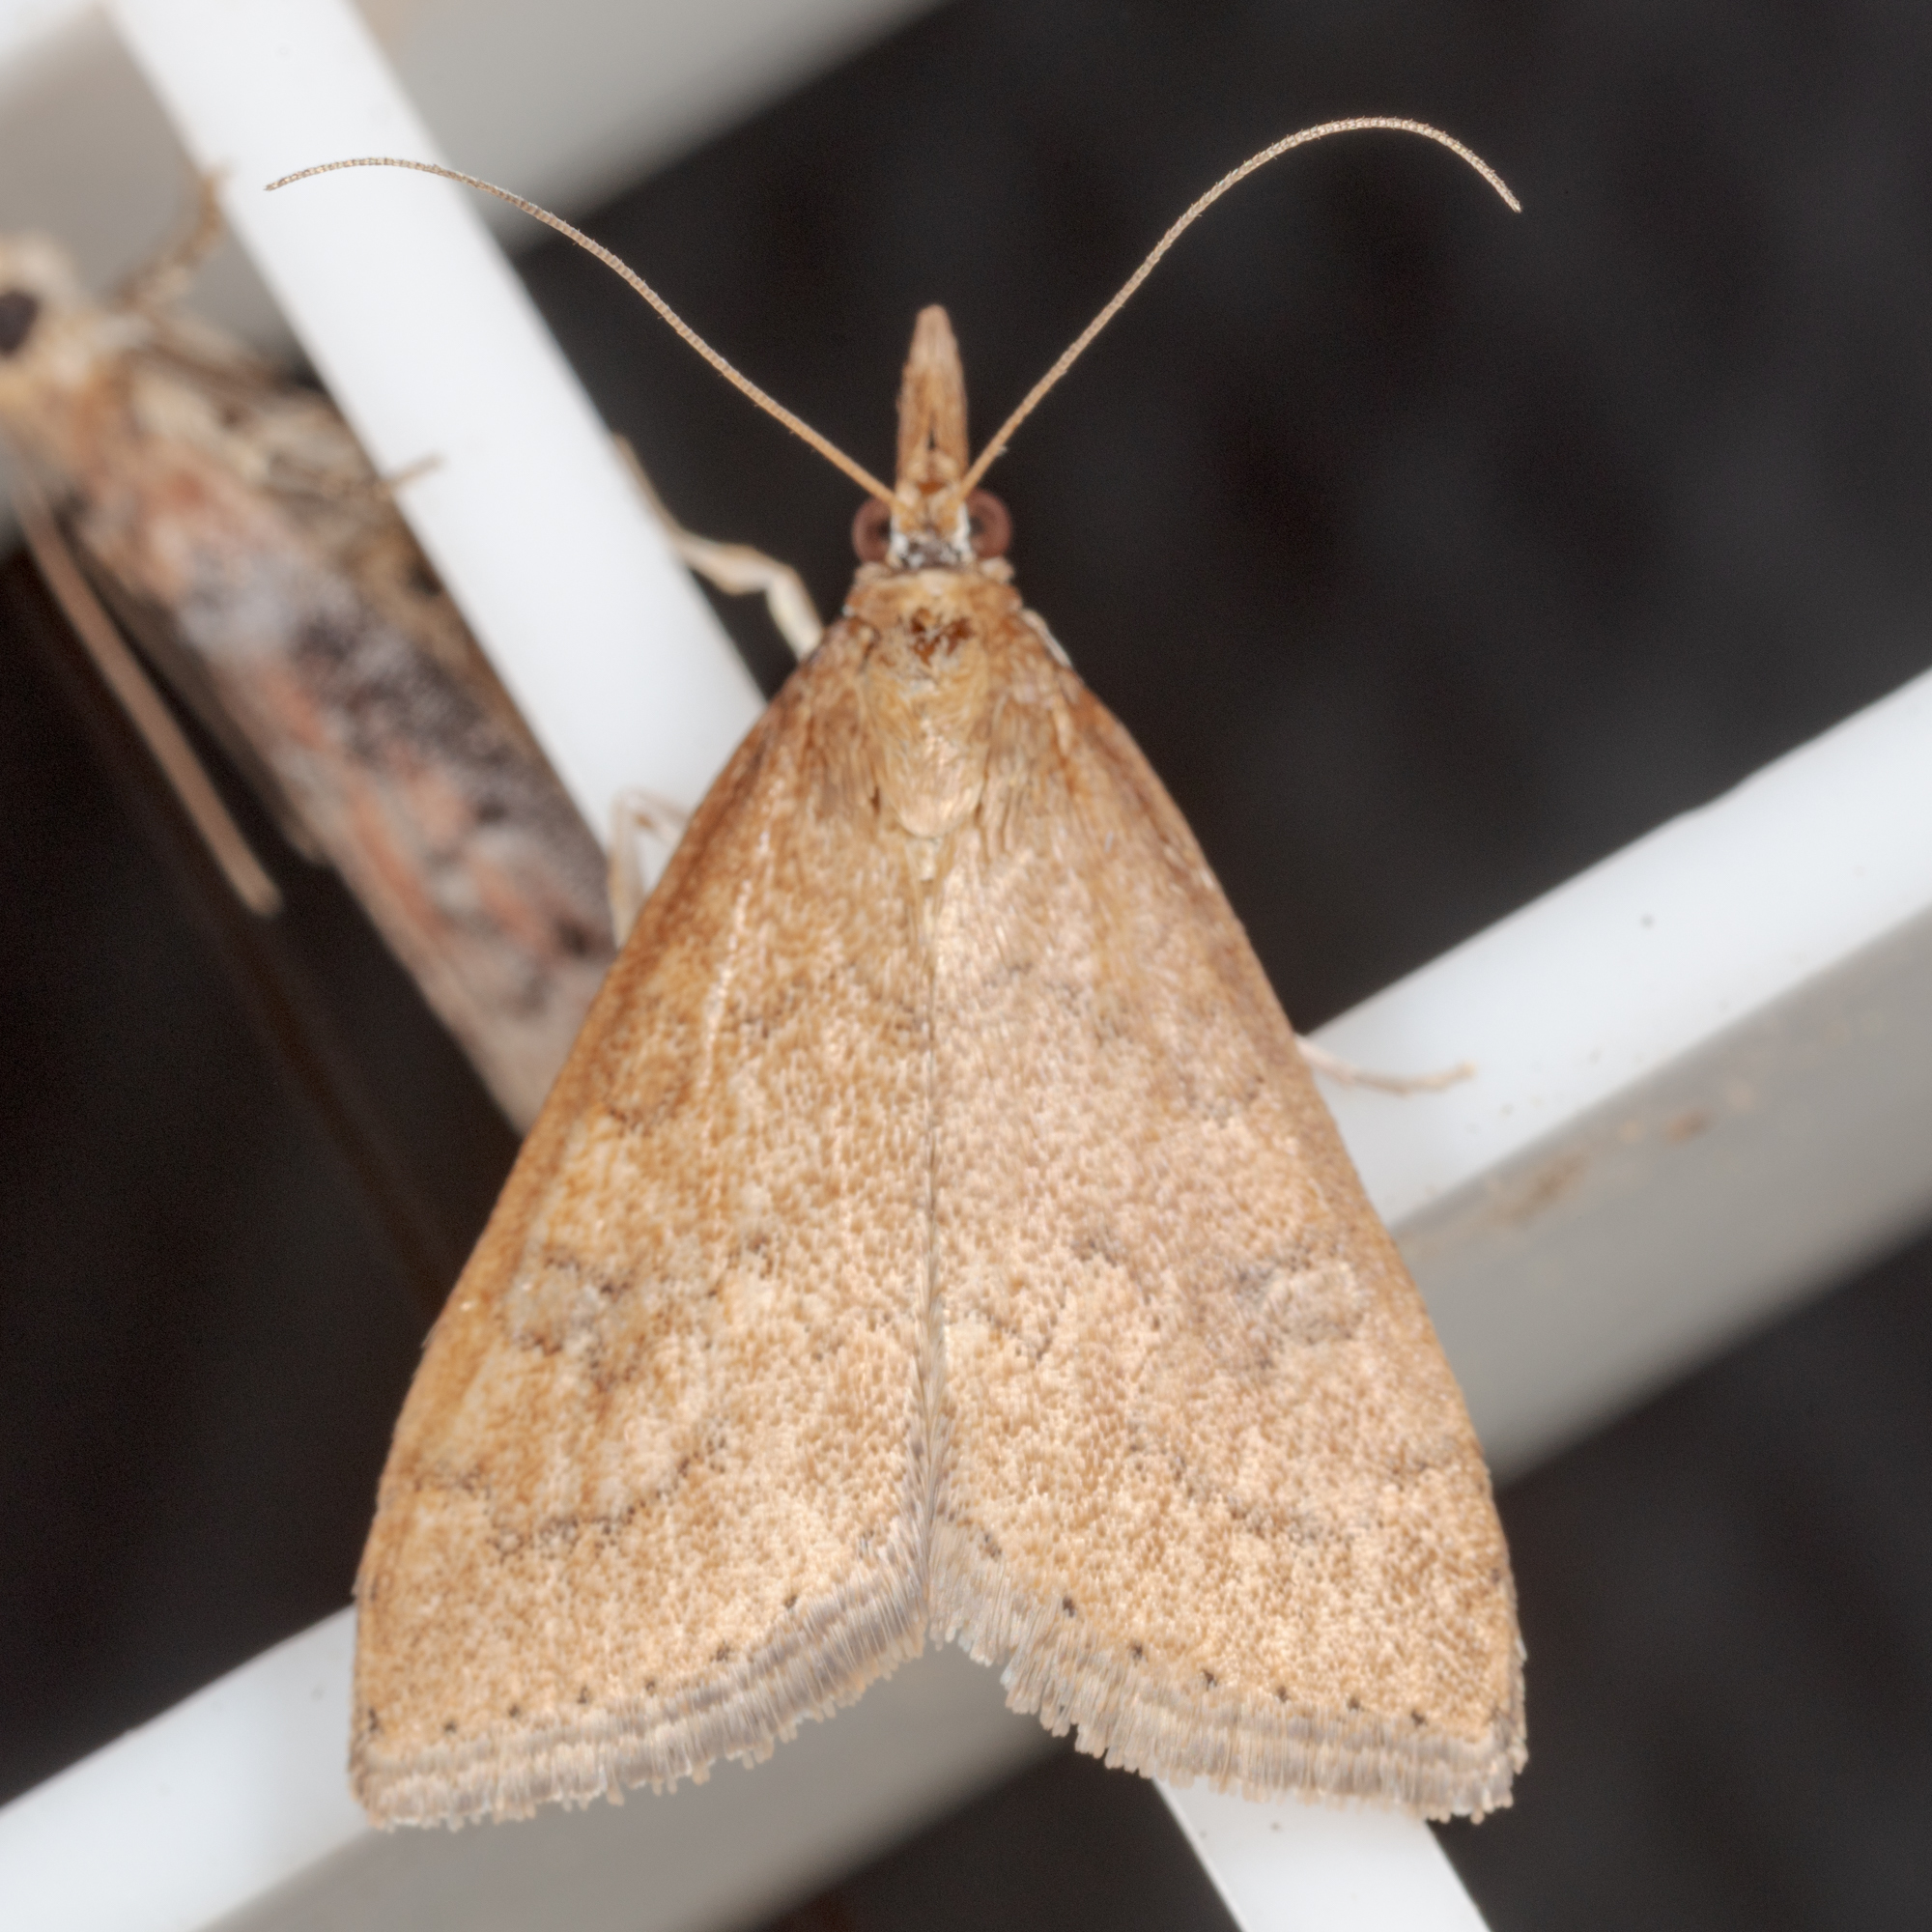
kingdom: Animalia
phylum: Arthropoda
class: Insecta
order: Lepidoptera
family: Crambidae
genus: Udea
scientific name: Udea rubigalis
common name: Celery leaftier moth
